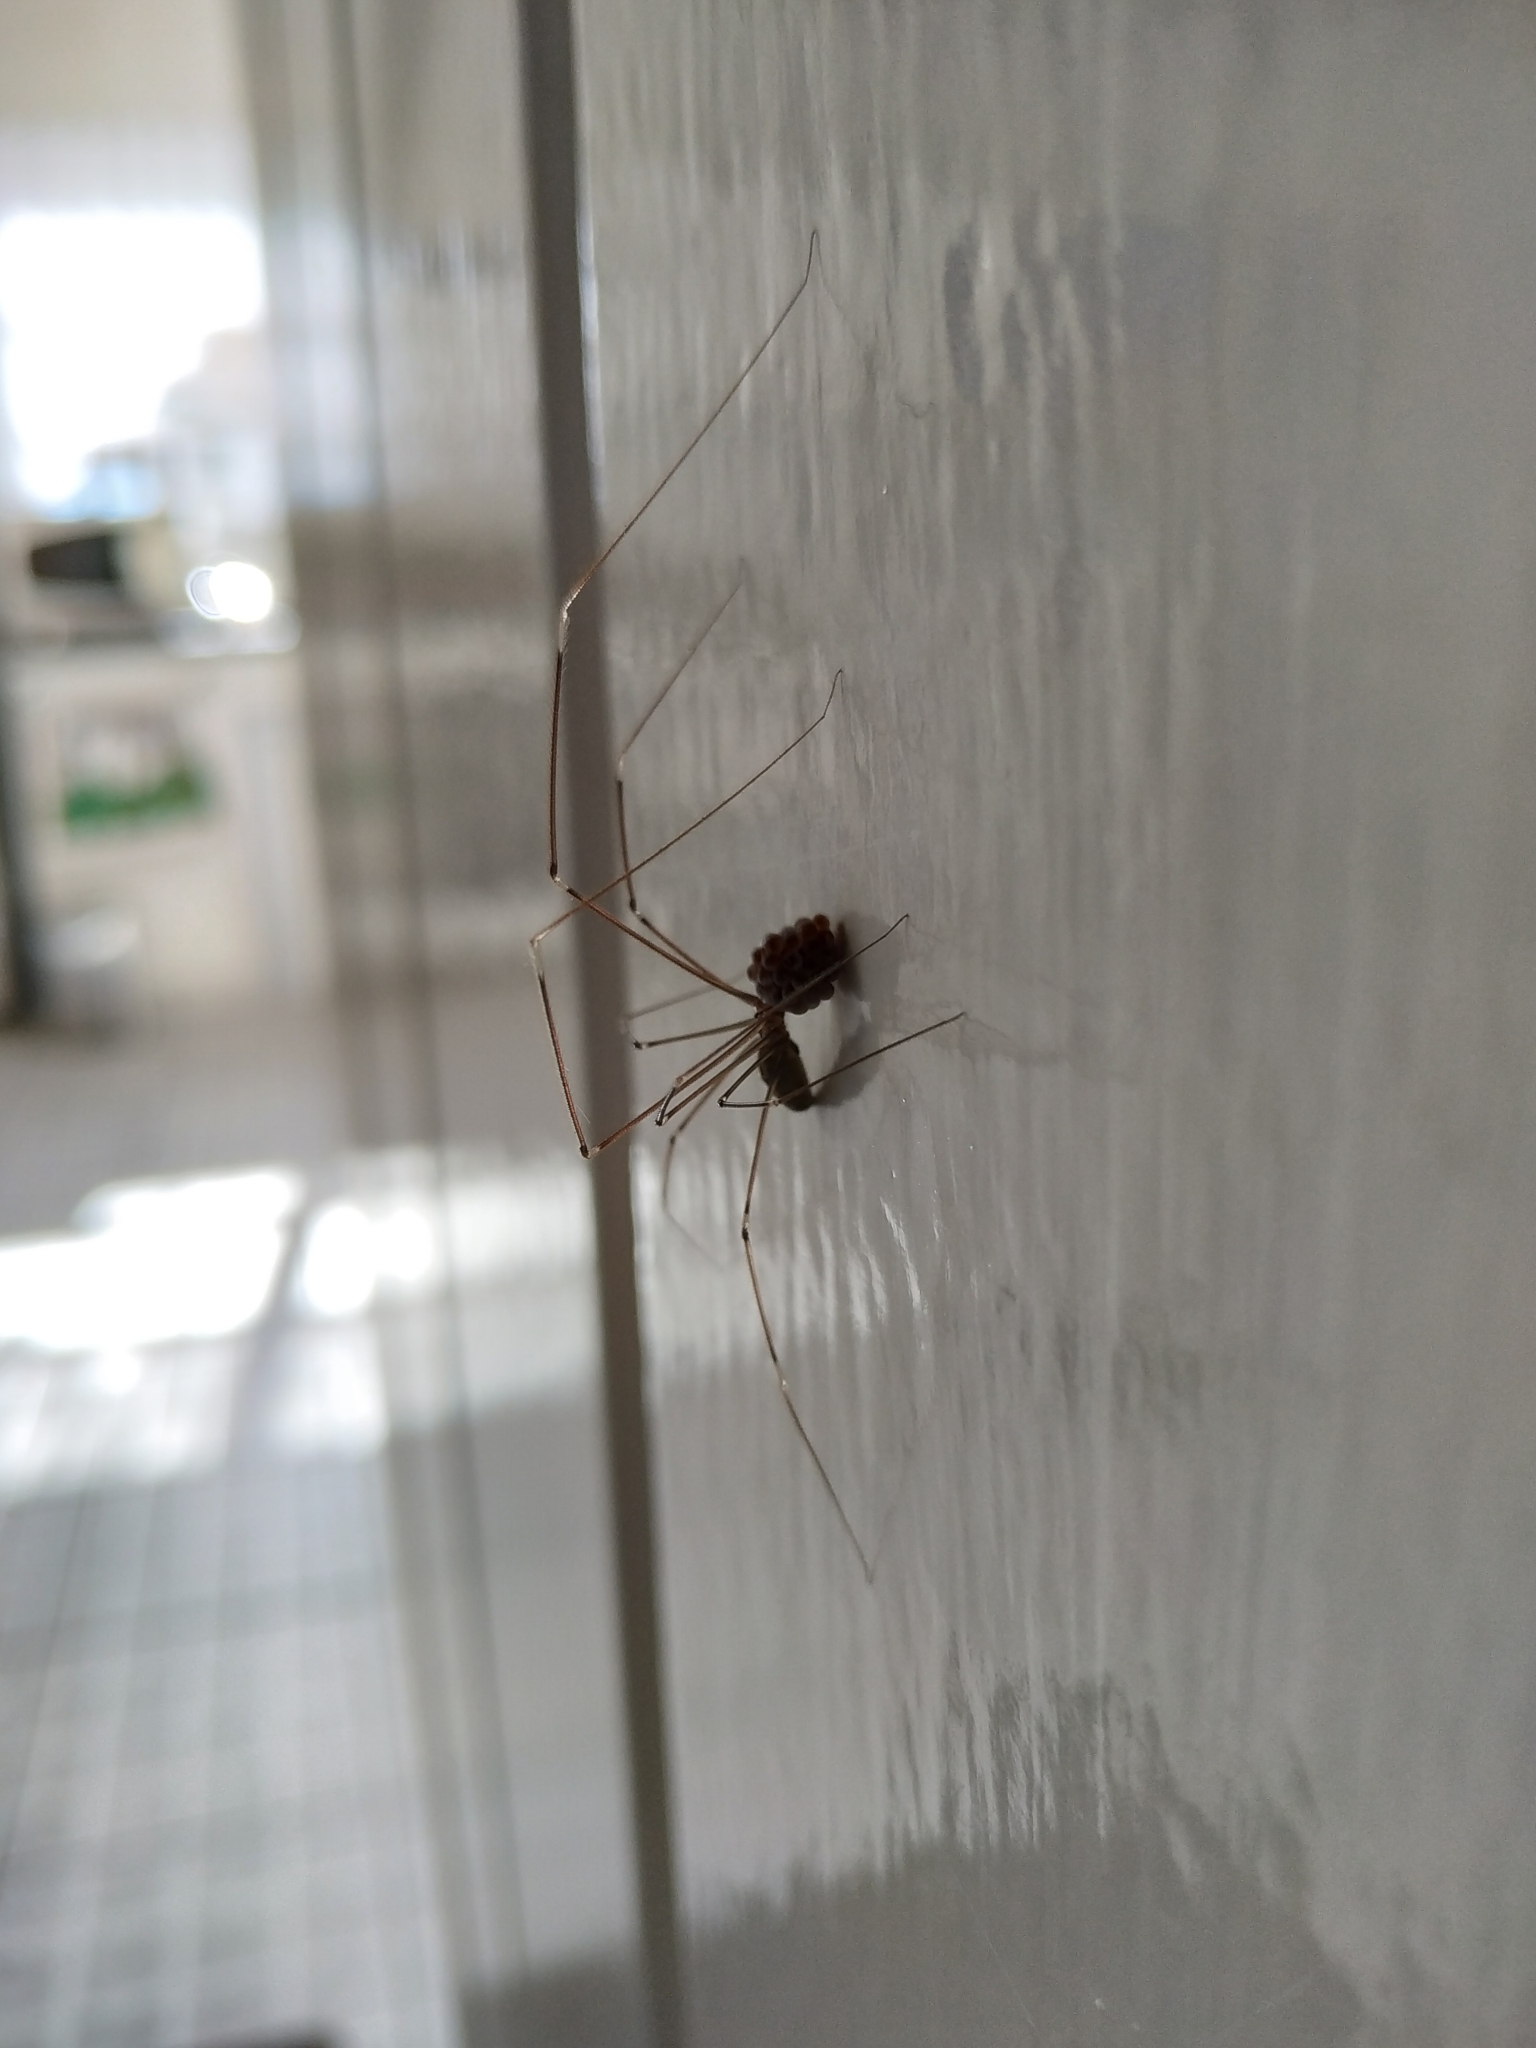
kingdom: Animalia
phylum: Arthropoda
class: Arachnida
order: Araneae
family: Pholcidae
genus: Smeringopus
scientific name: Smeringopus pallidus
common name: Cellar spider
